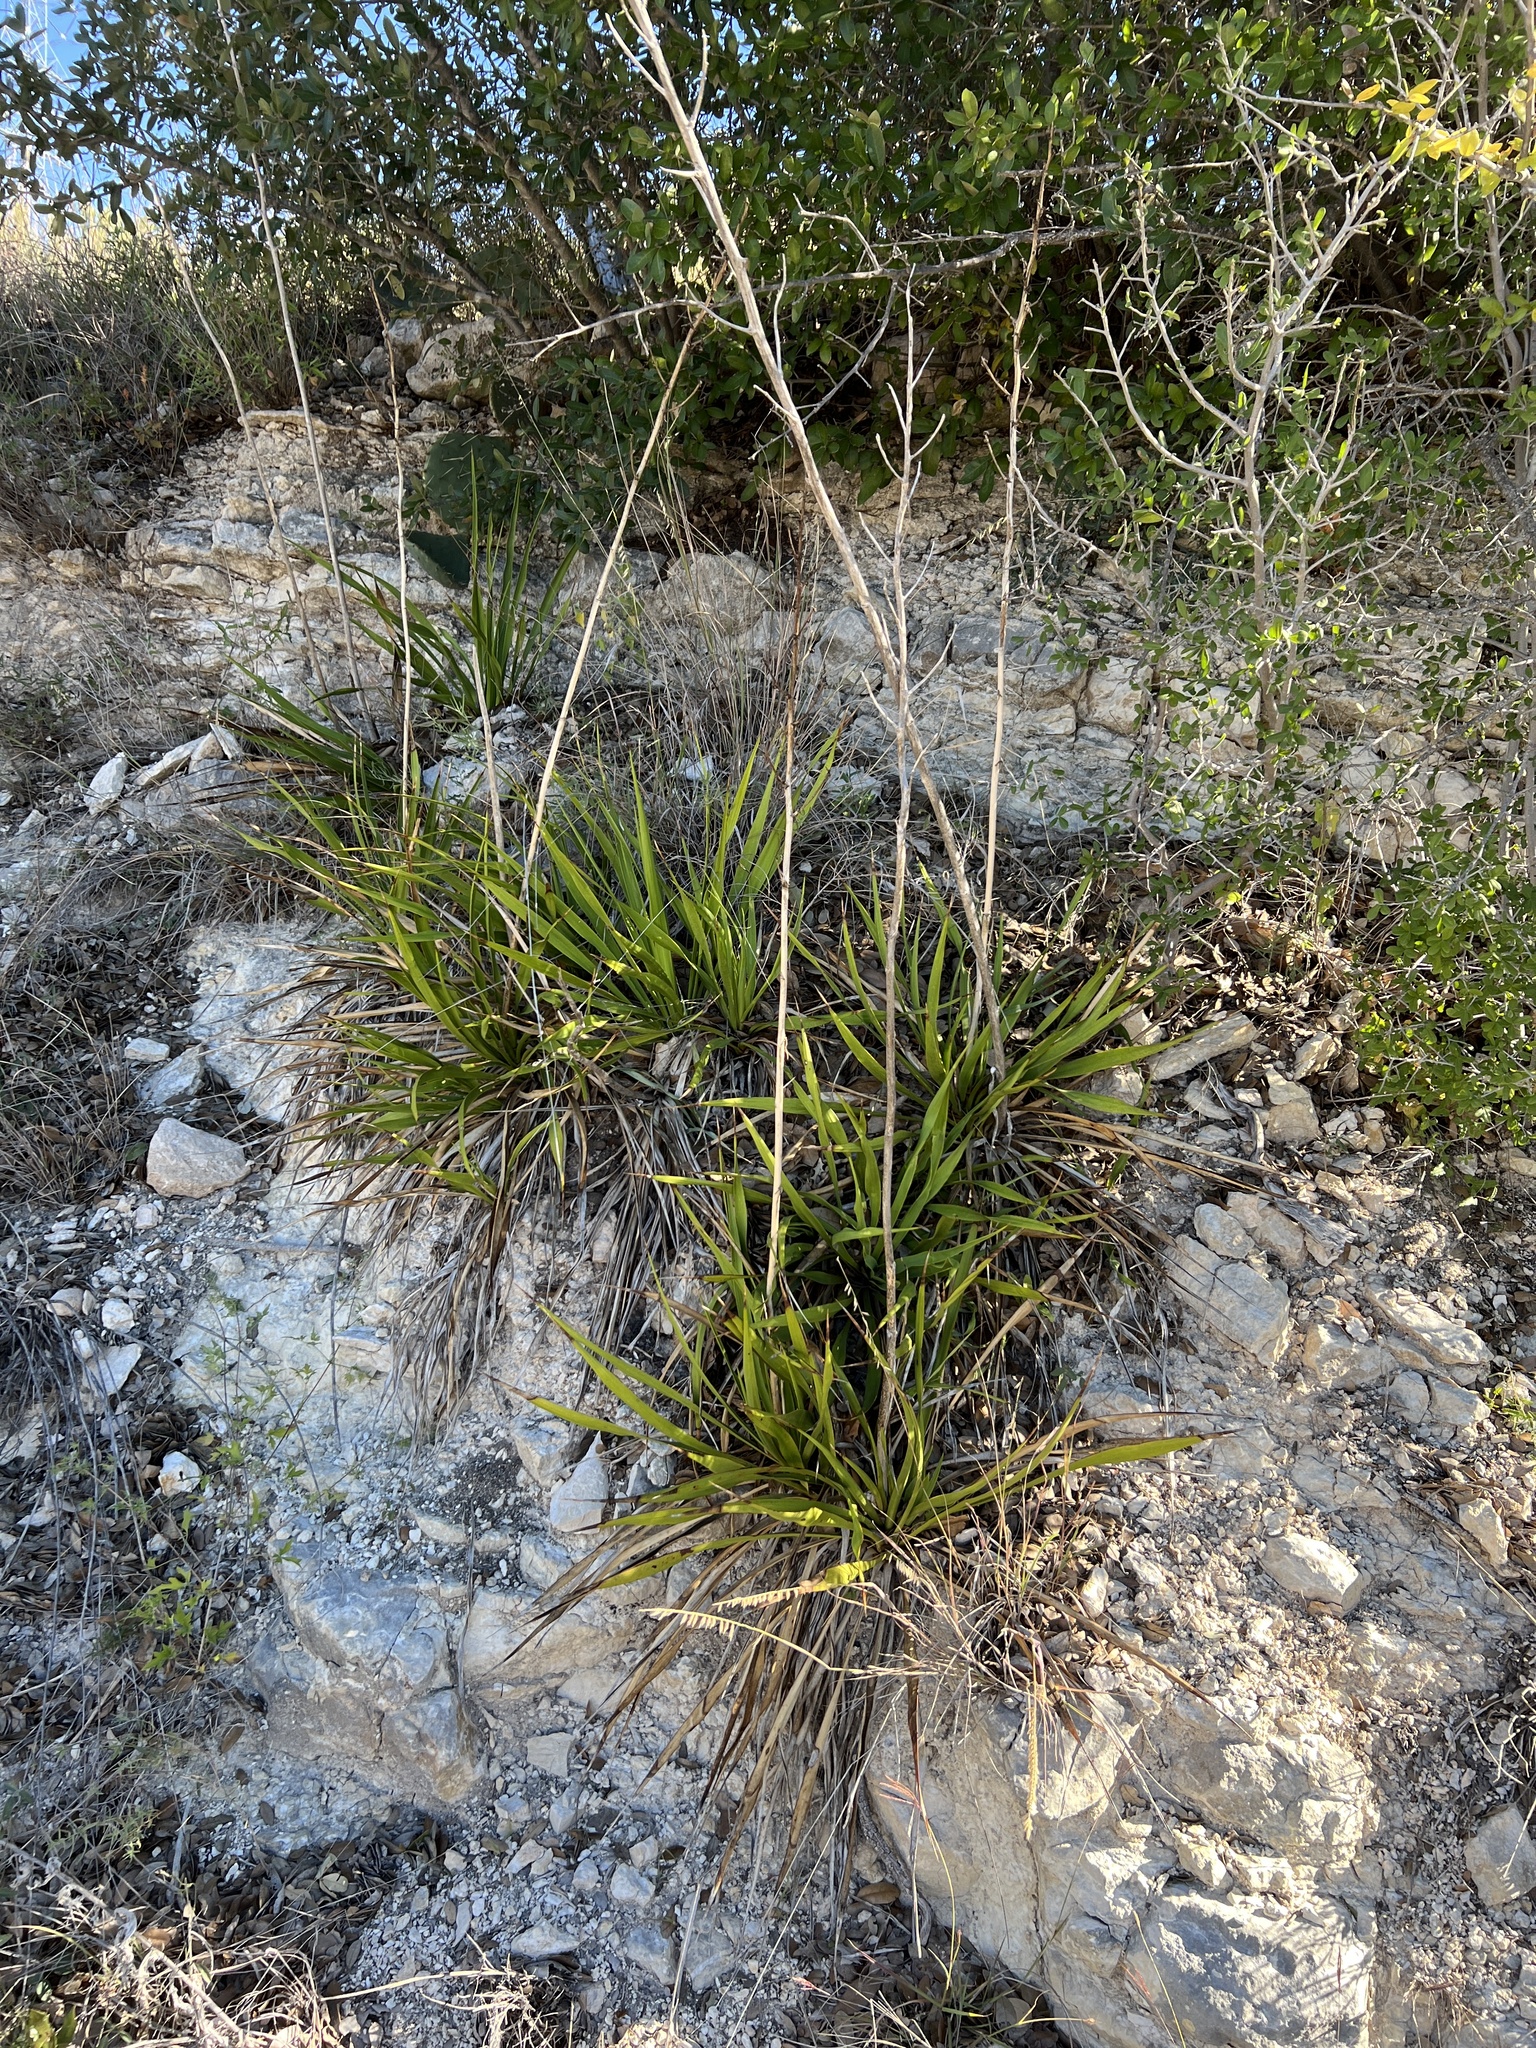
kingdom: Plantae
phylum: Tracheophyta
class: Liliopsida
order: Asparagales
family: Asparagaceae
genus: Yucca
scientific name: Yucca rupicola
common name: Twisted-leaf spanish-dagger
